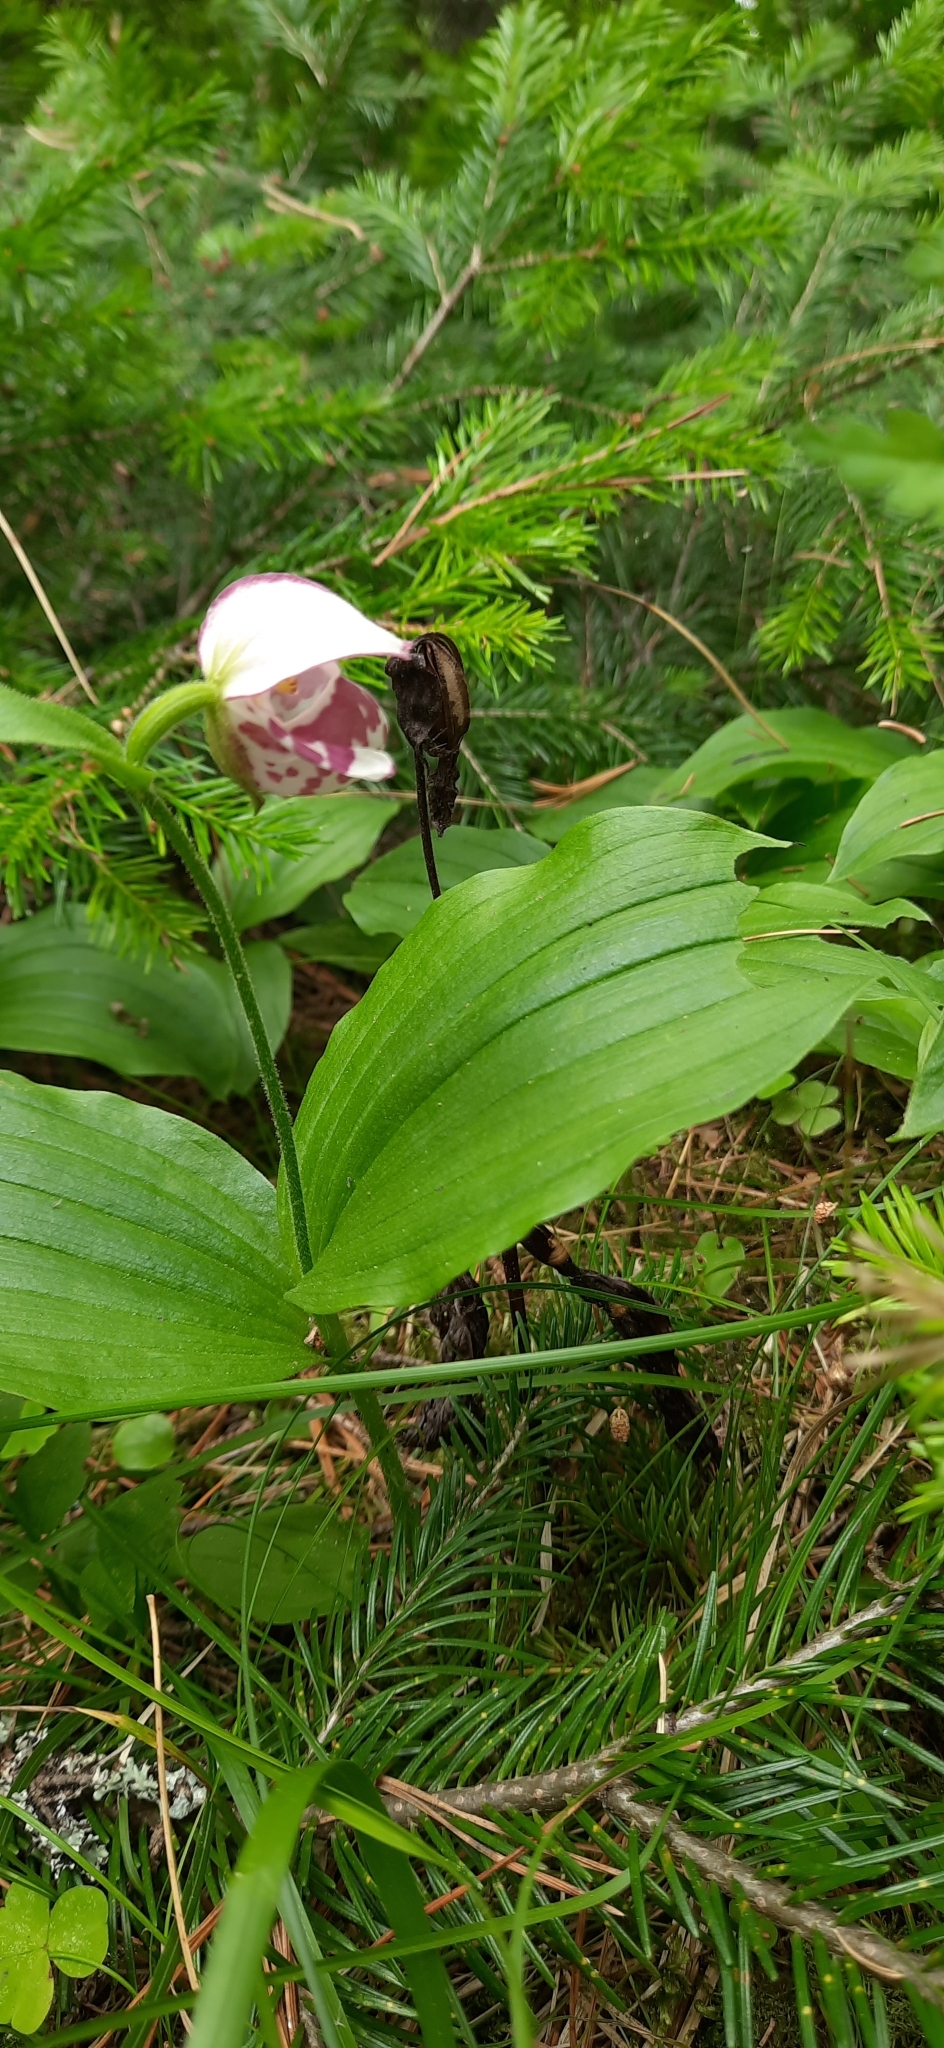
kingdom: Plantae
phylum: Tracheophyta
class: Liliopsida
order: Asparagales
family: Orchidaceae
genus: Cypripedium
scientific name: Cypripedium guttatum
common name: Pink lady slipper
